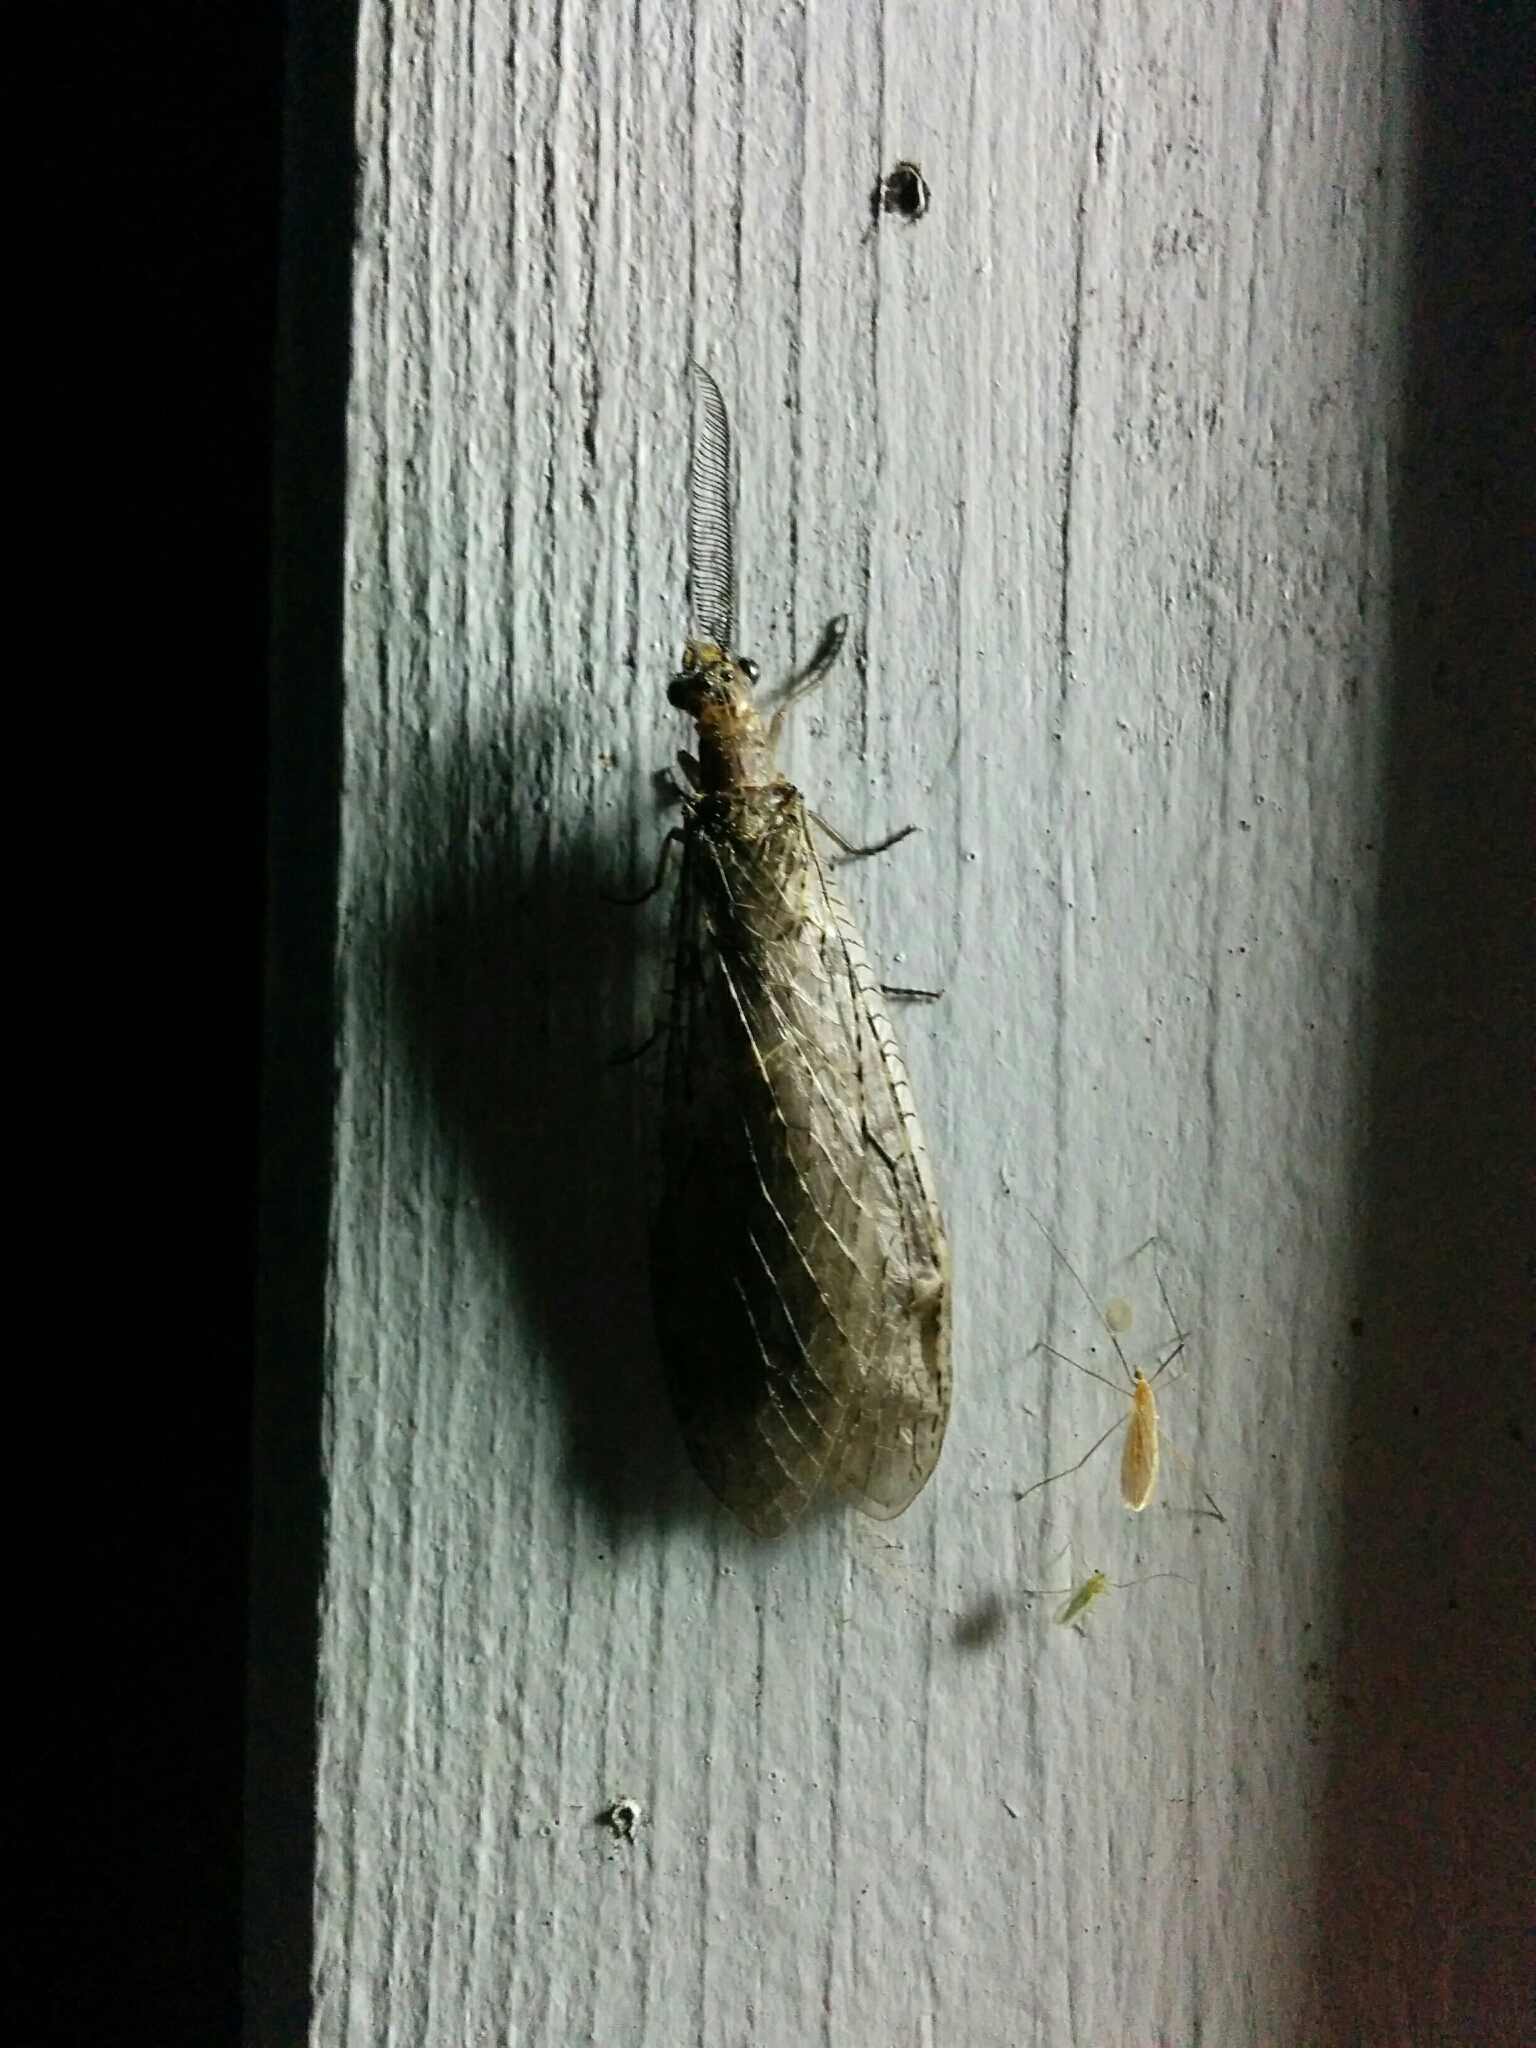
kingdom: Animalia
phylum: Arthropoda
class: Insecta
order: Megaloptera
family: Corydalidae
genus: Chauliodes
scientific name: Chauliodes rastricornis
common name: Spring fishfly
